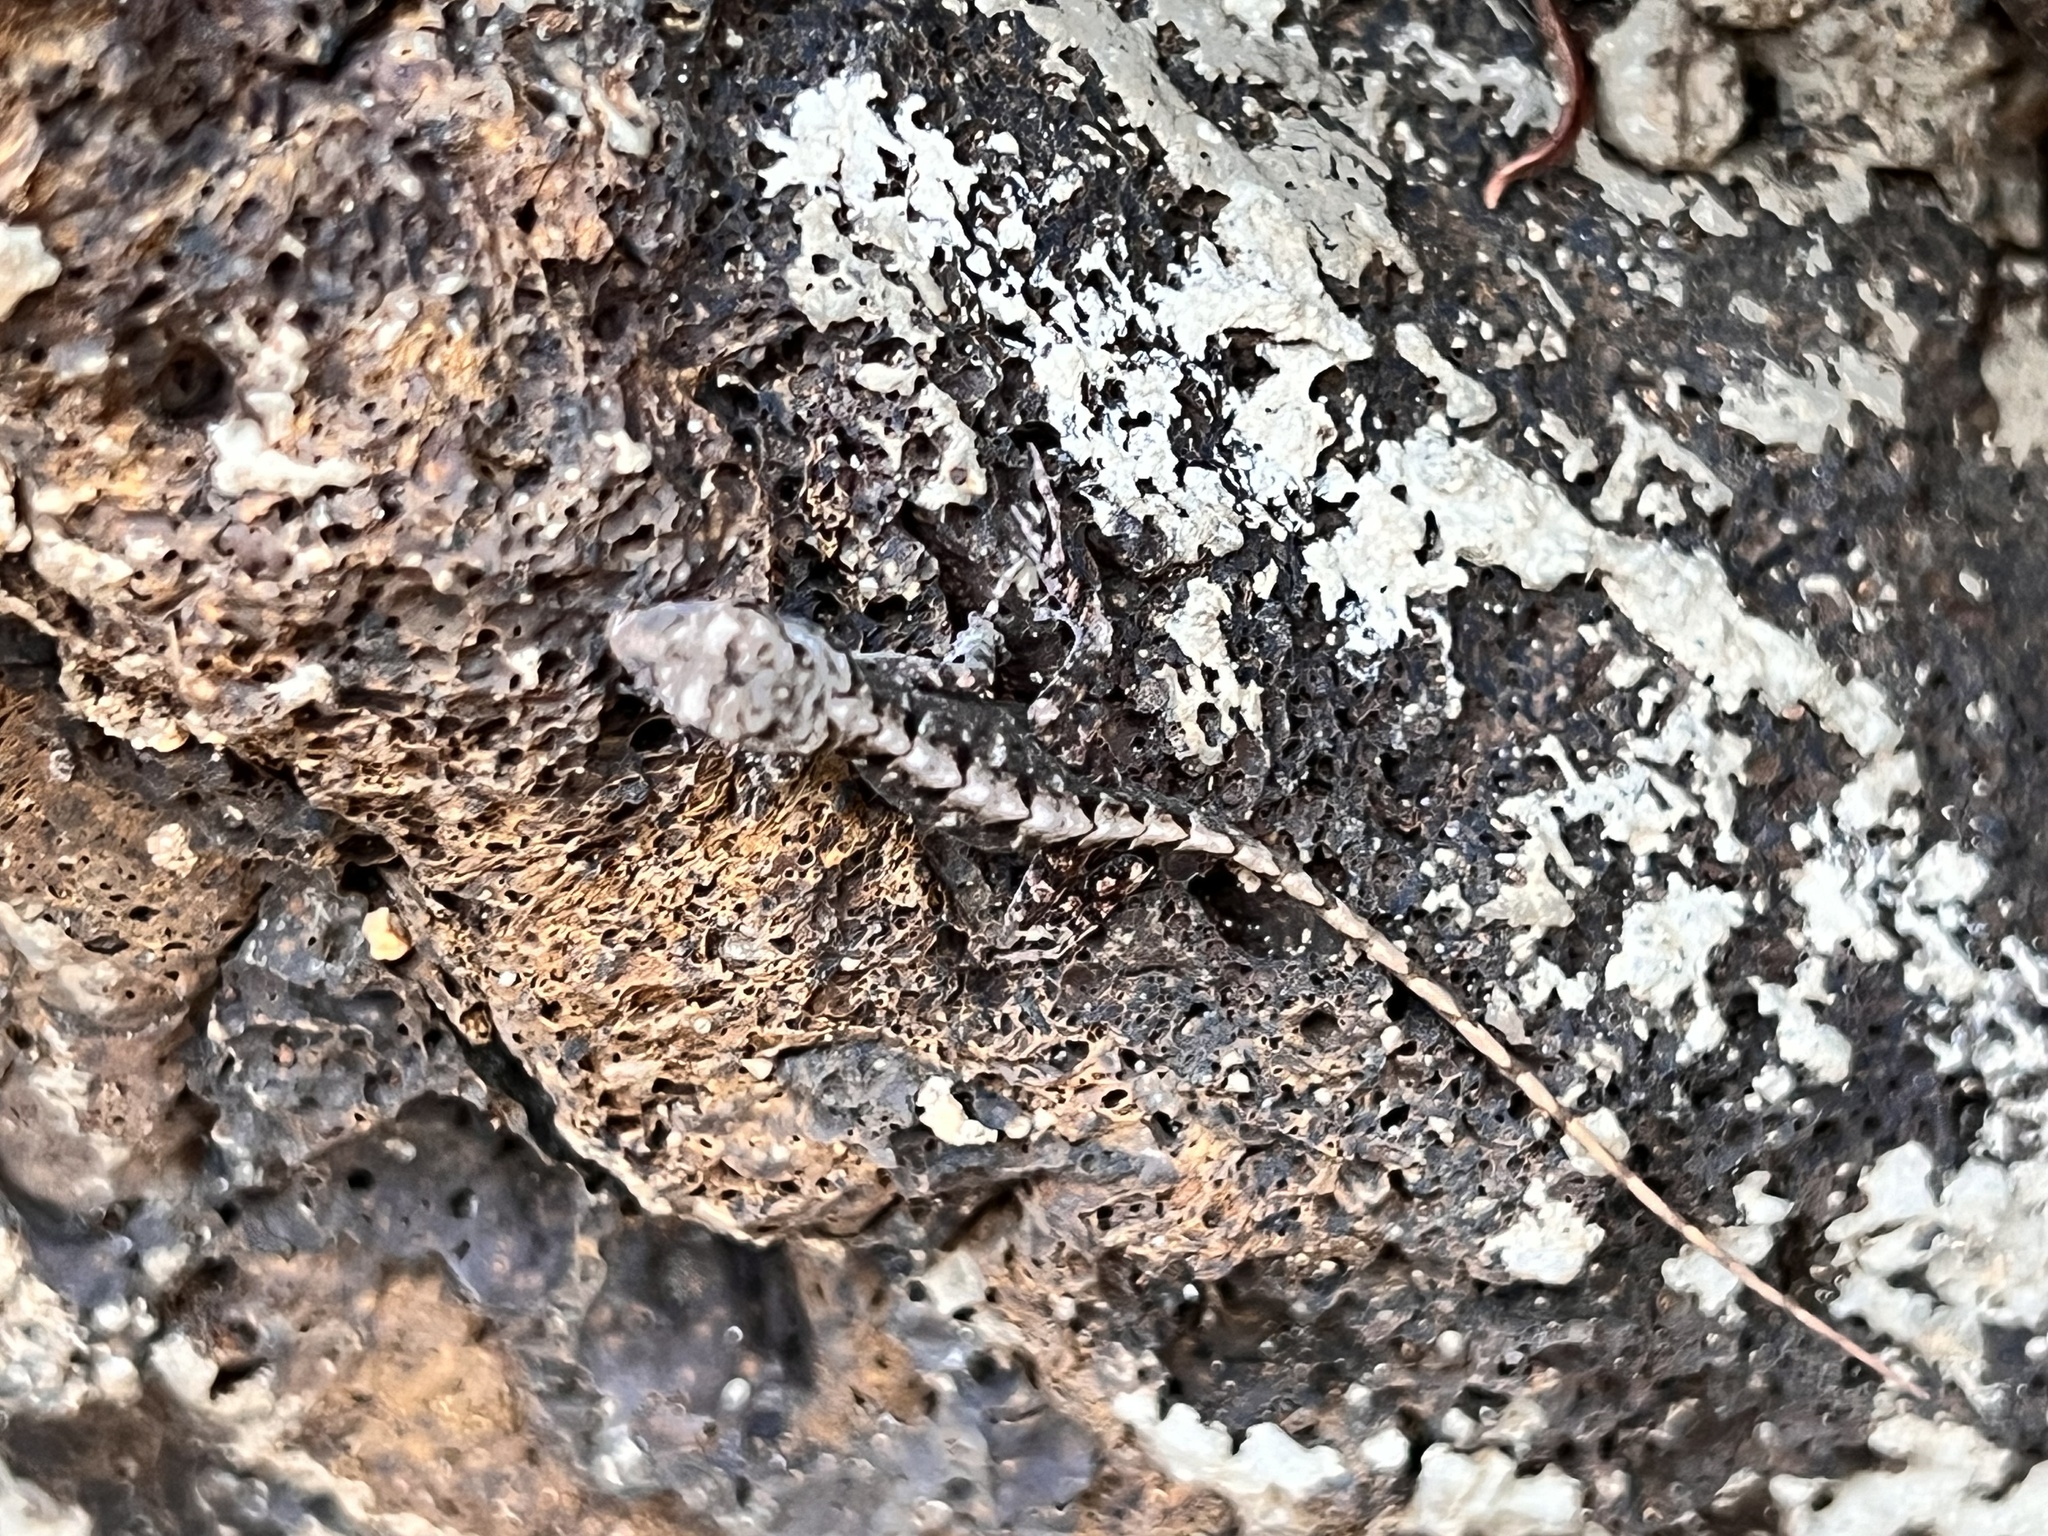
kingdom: Animalia
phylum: Chordata
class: Squamata
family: Dactyloidae
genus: Anolis
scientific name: Anolis sagrei
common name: Brown anole
